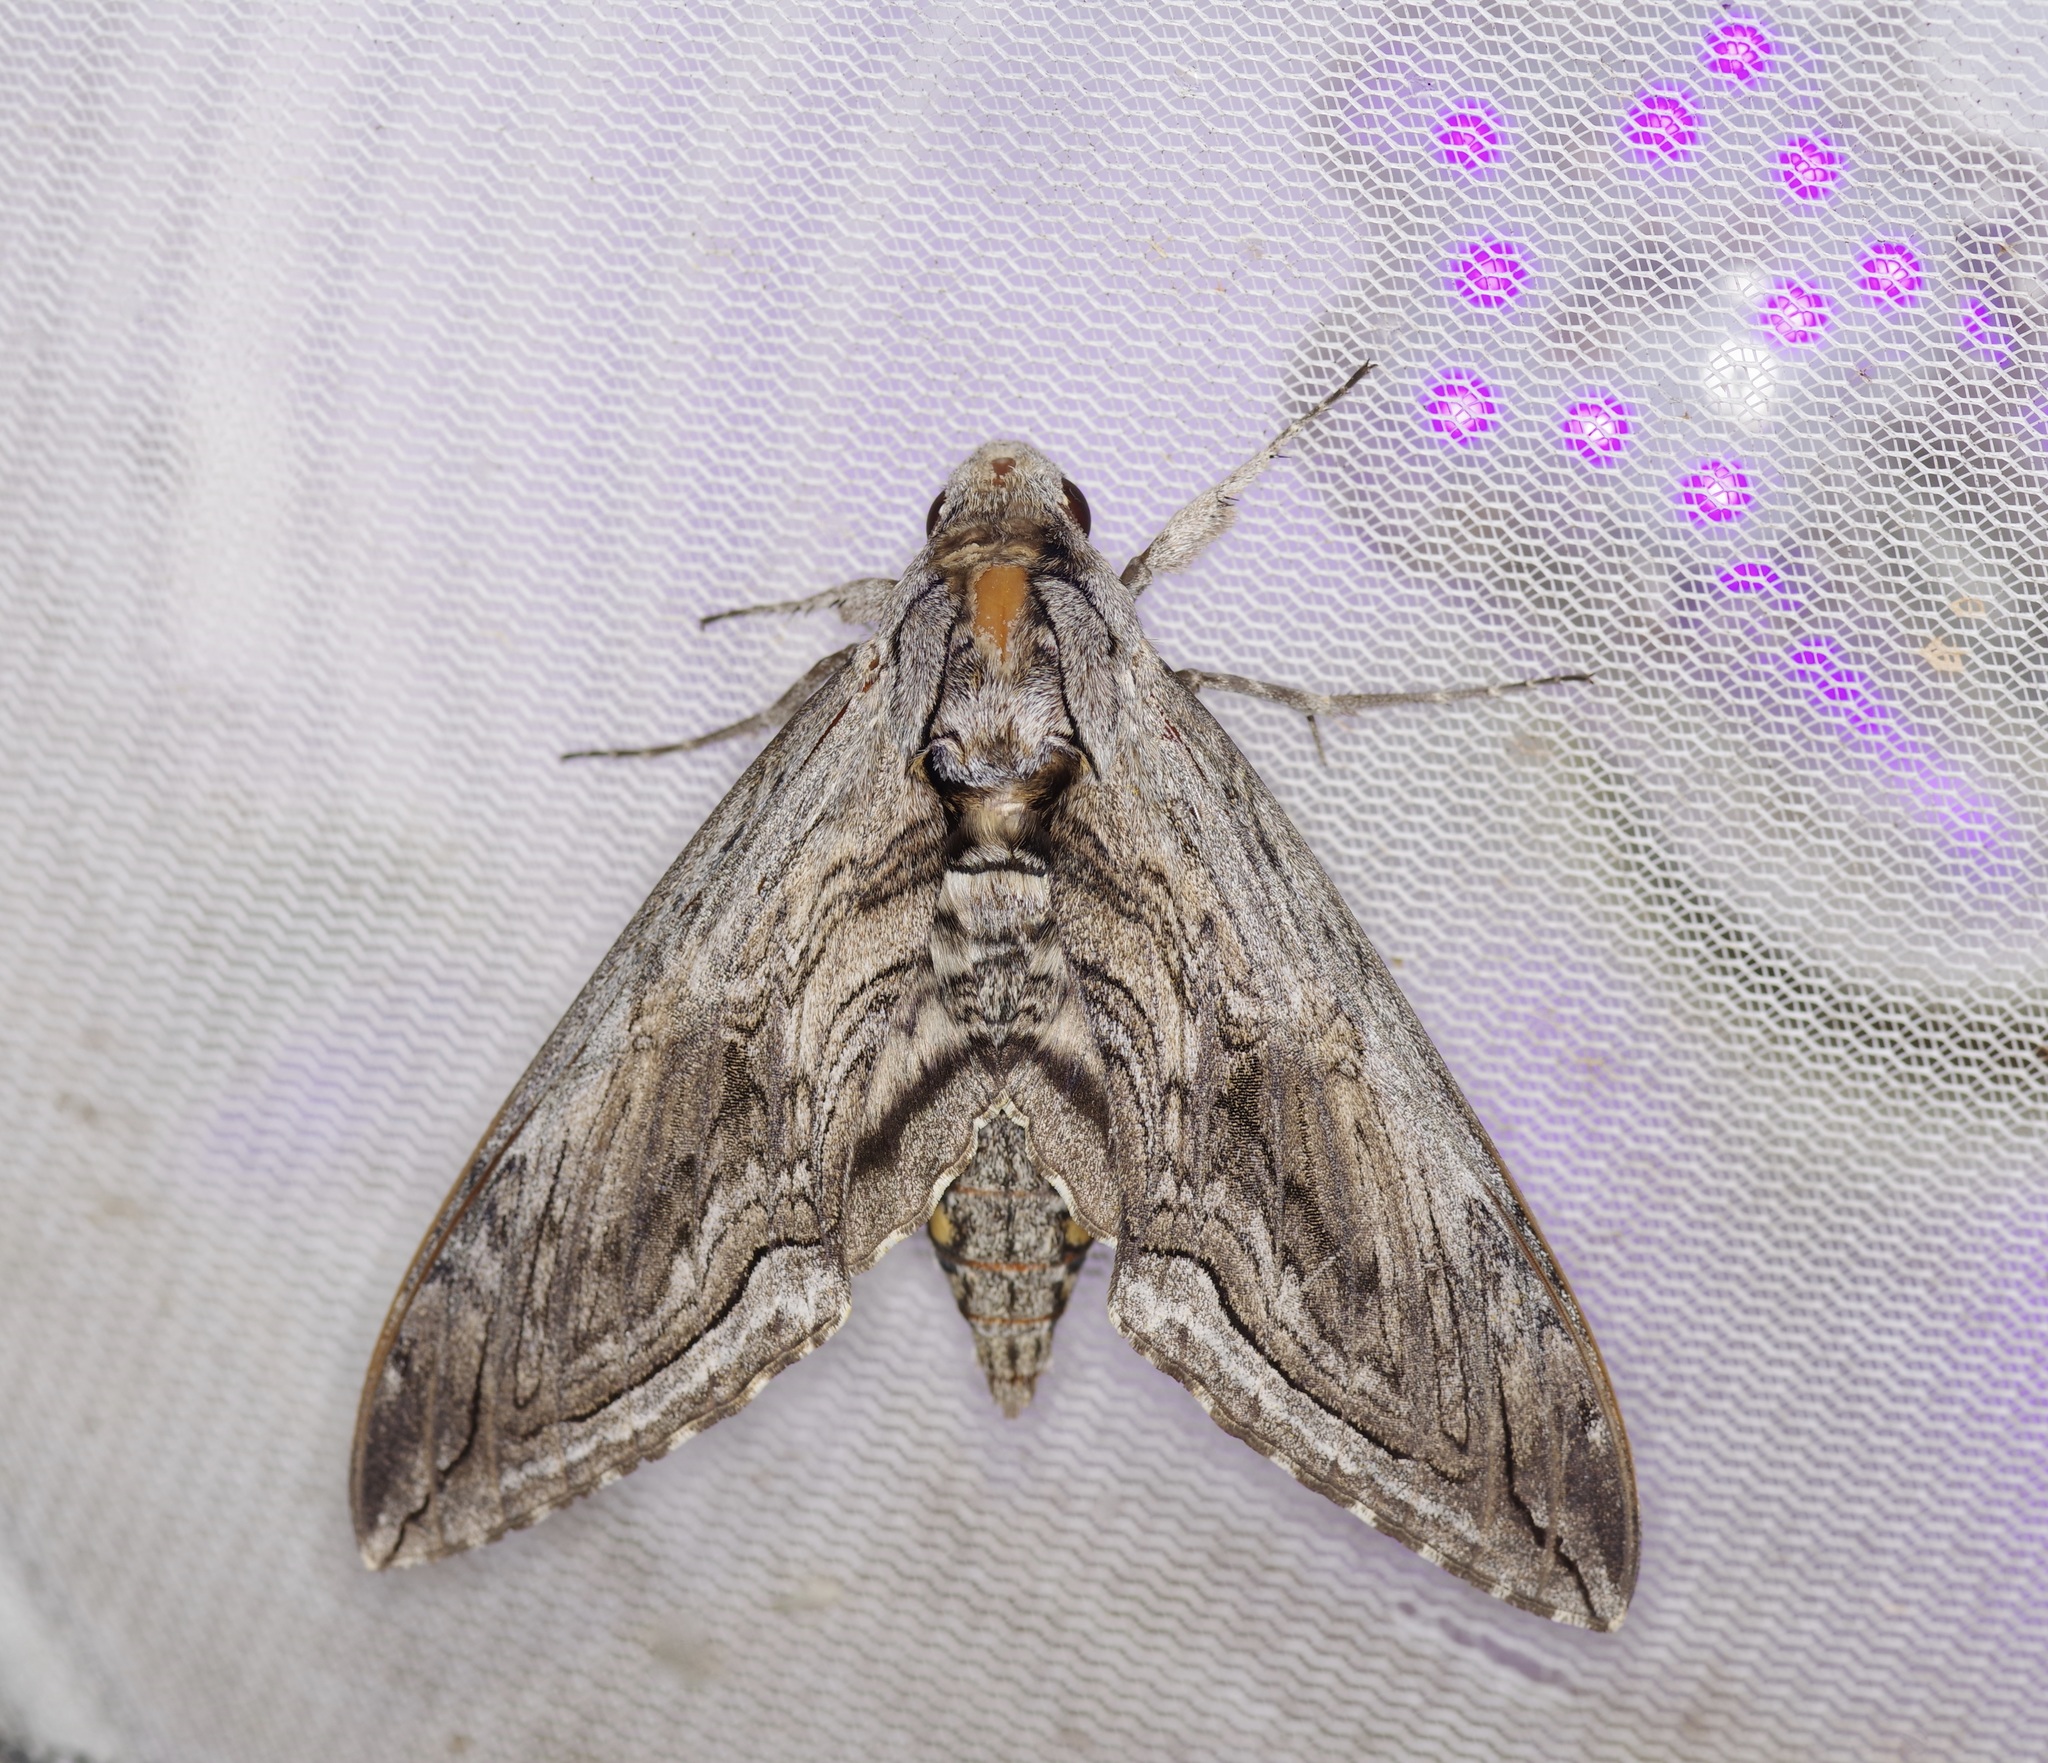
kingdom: Animalia
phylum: Arthropoda
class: Insecta
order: Lepidoptera
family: Sphingidae
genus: Manduca
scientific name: Manduca quinquemaculatus
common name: Five-spotted hawk-moth
